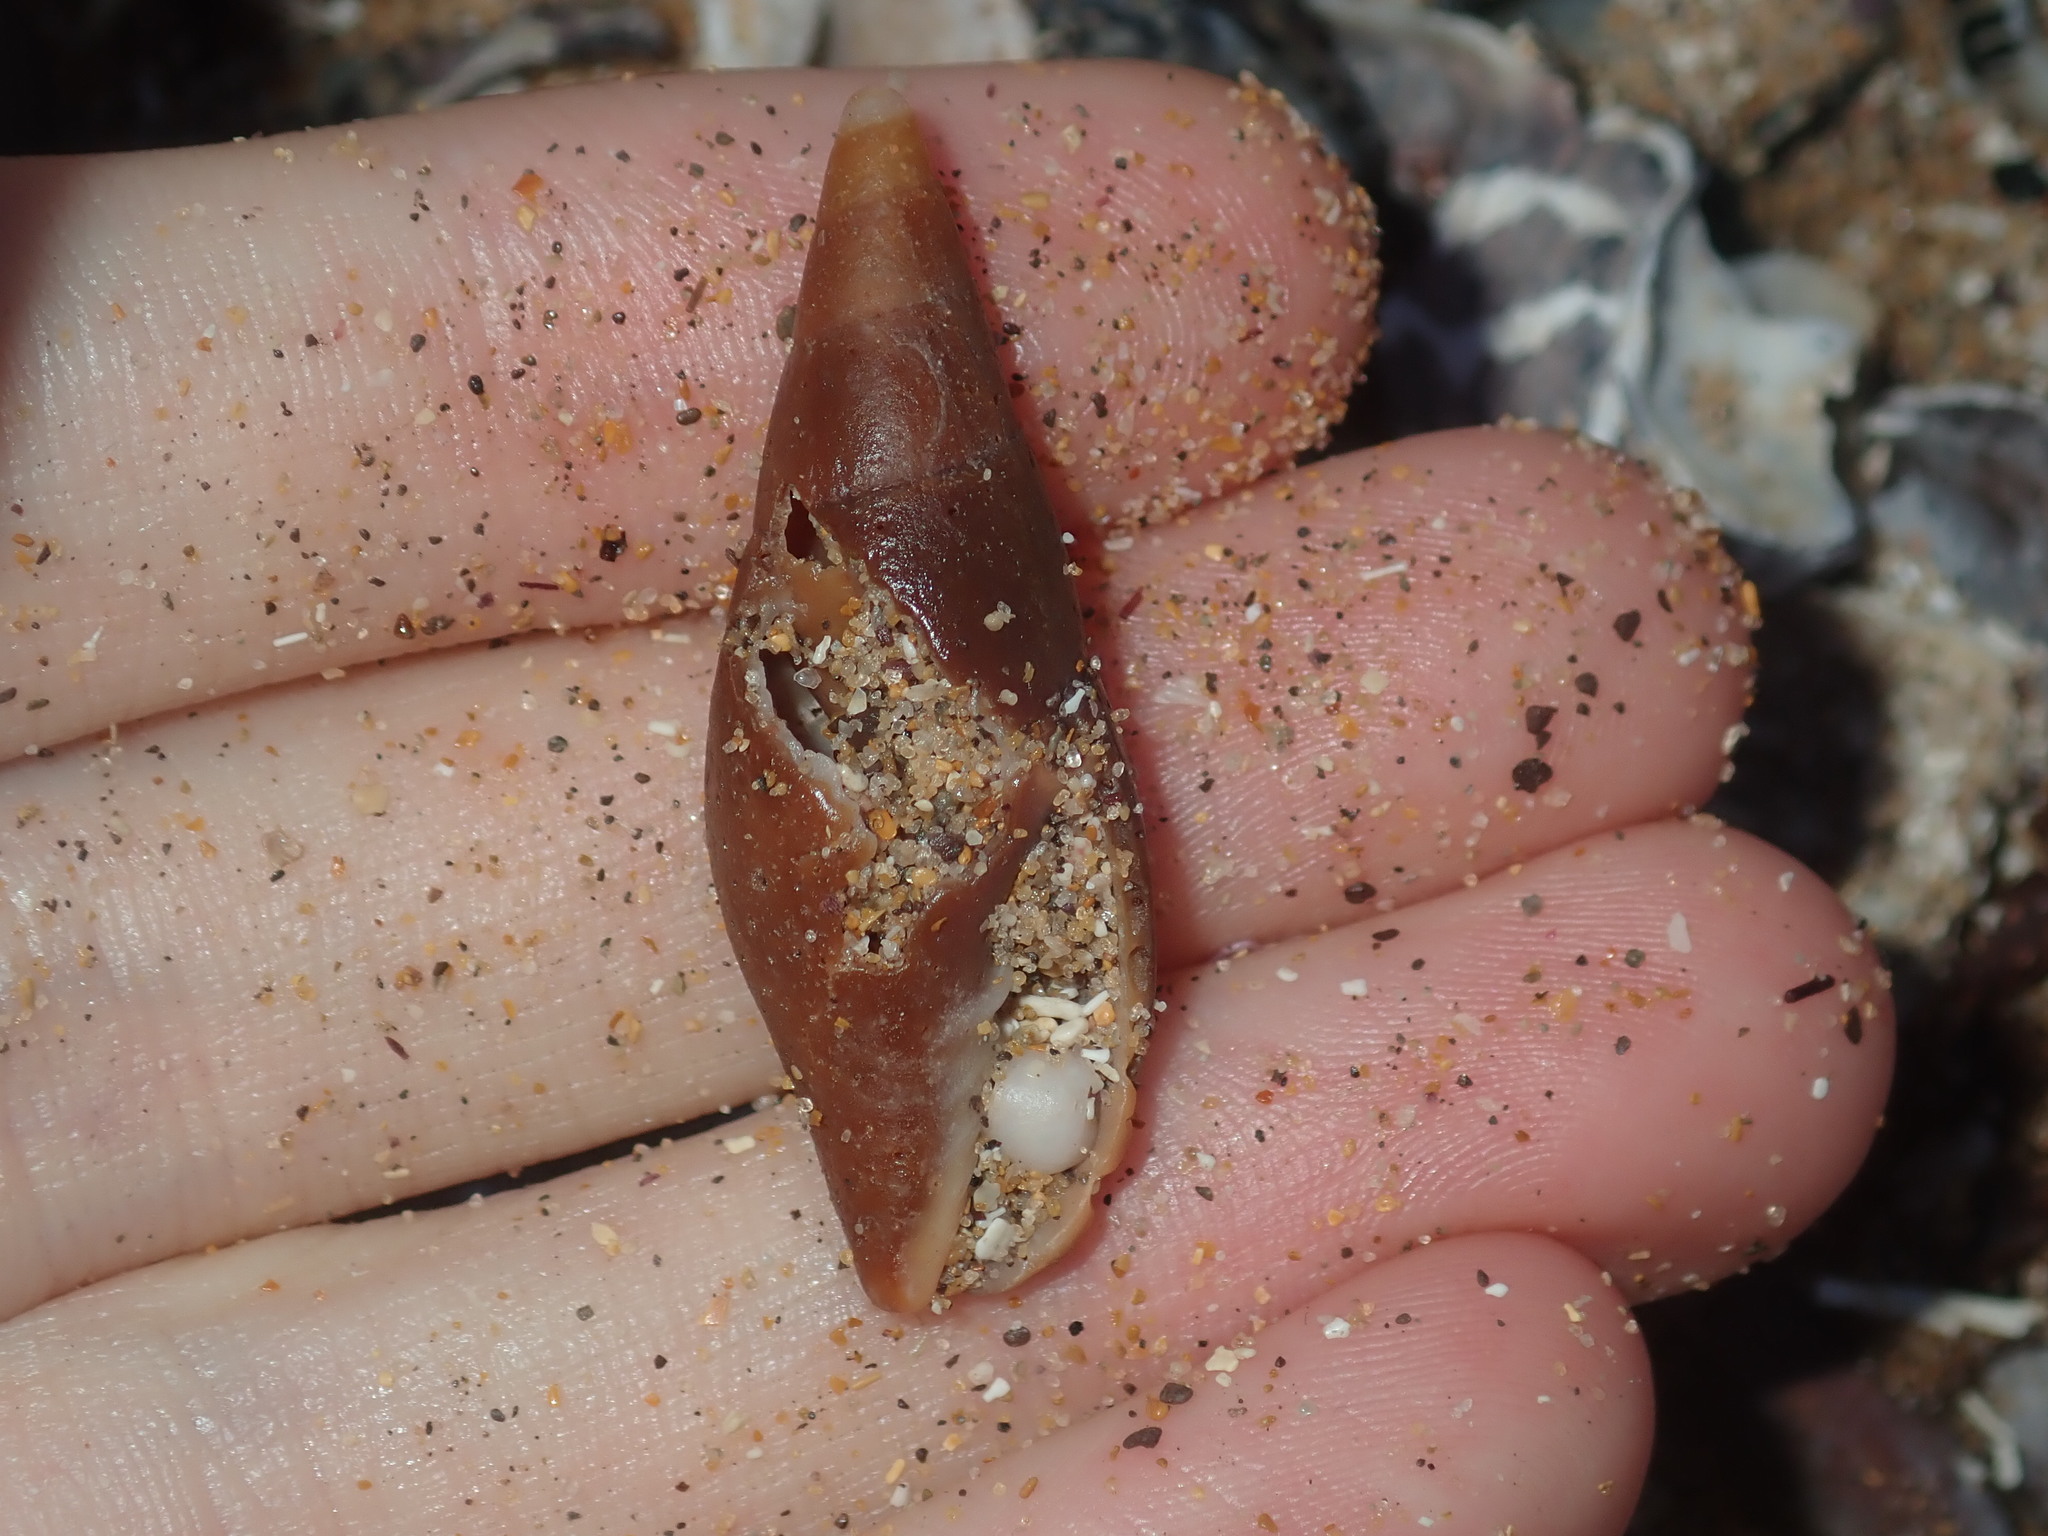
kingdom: Animalia
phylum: Mollusca
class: Gastropoda
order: Neogastropoda
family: Mitridae
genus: Isara
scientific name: Isara carbonaria
